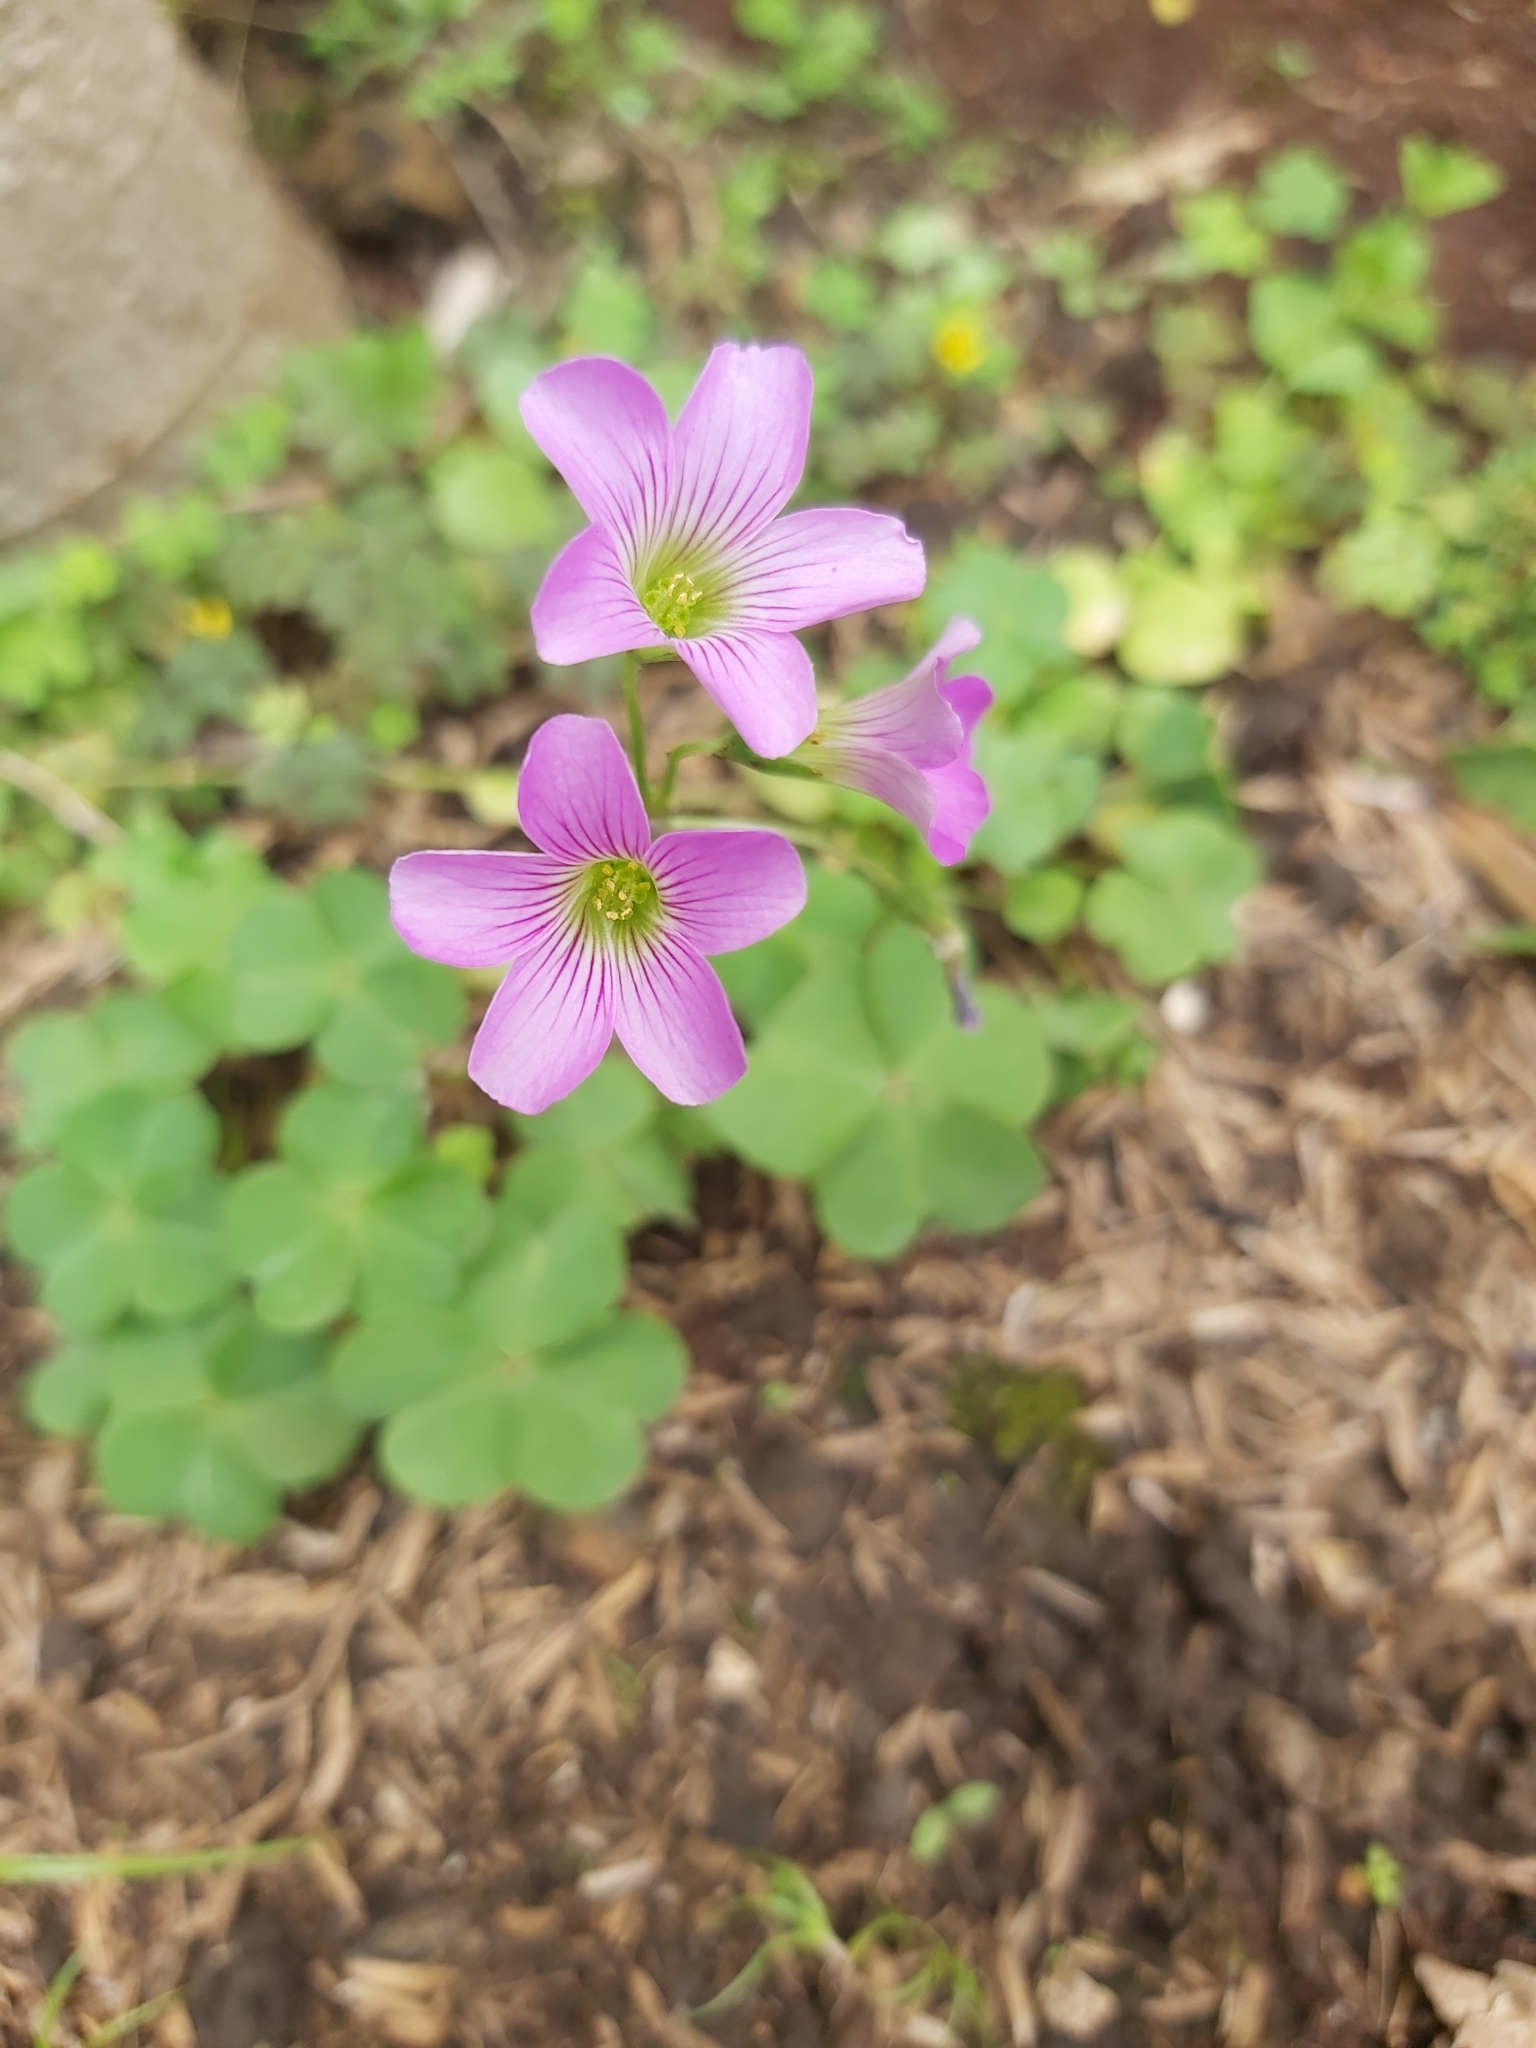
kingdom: Plantae
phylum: Tracheophyta
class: Magnoliopsida
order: Oxalidales
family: Oxalidaceae
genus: Oxalis
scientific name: Oxalis debilis
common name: Large-flowered pink-sorrel
